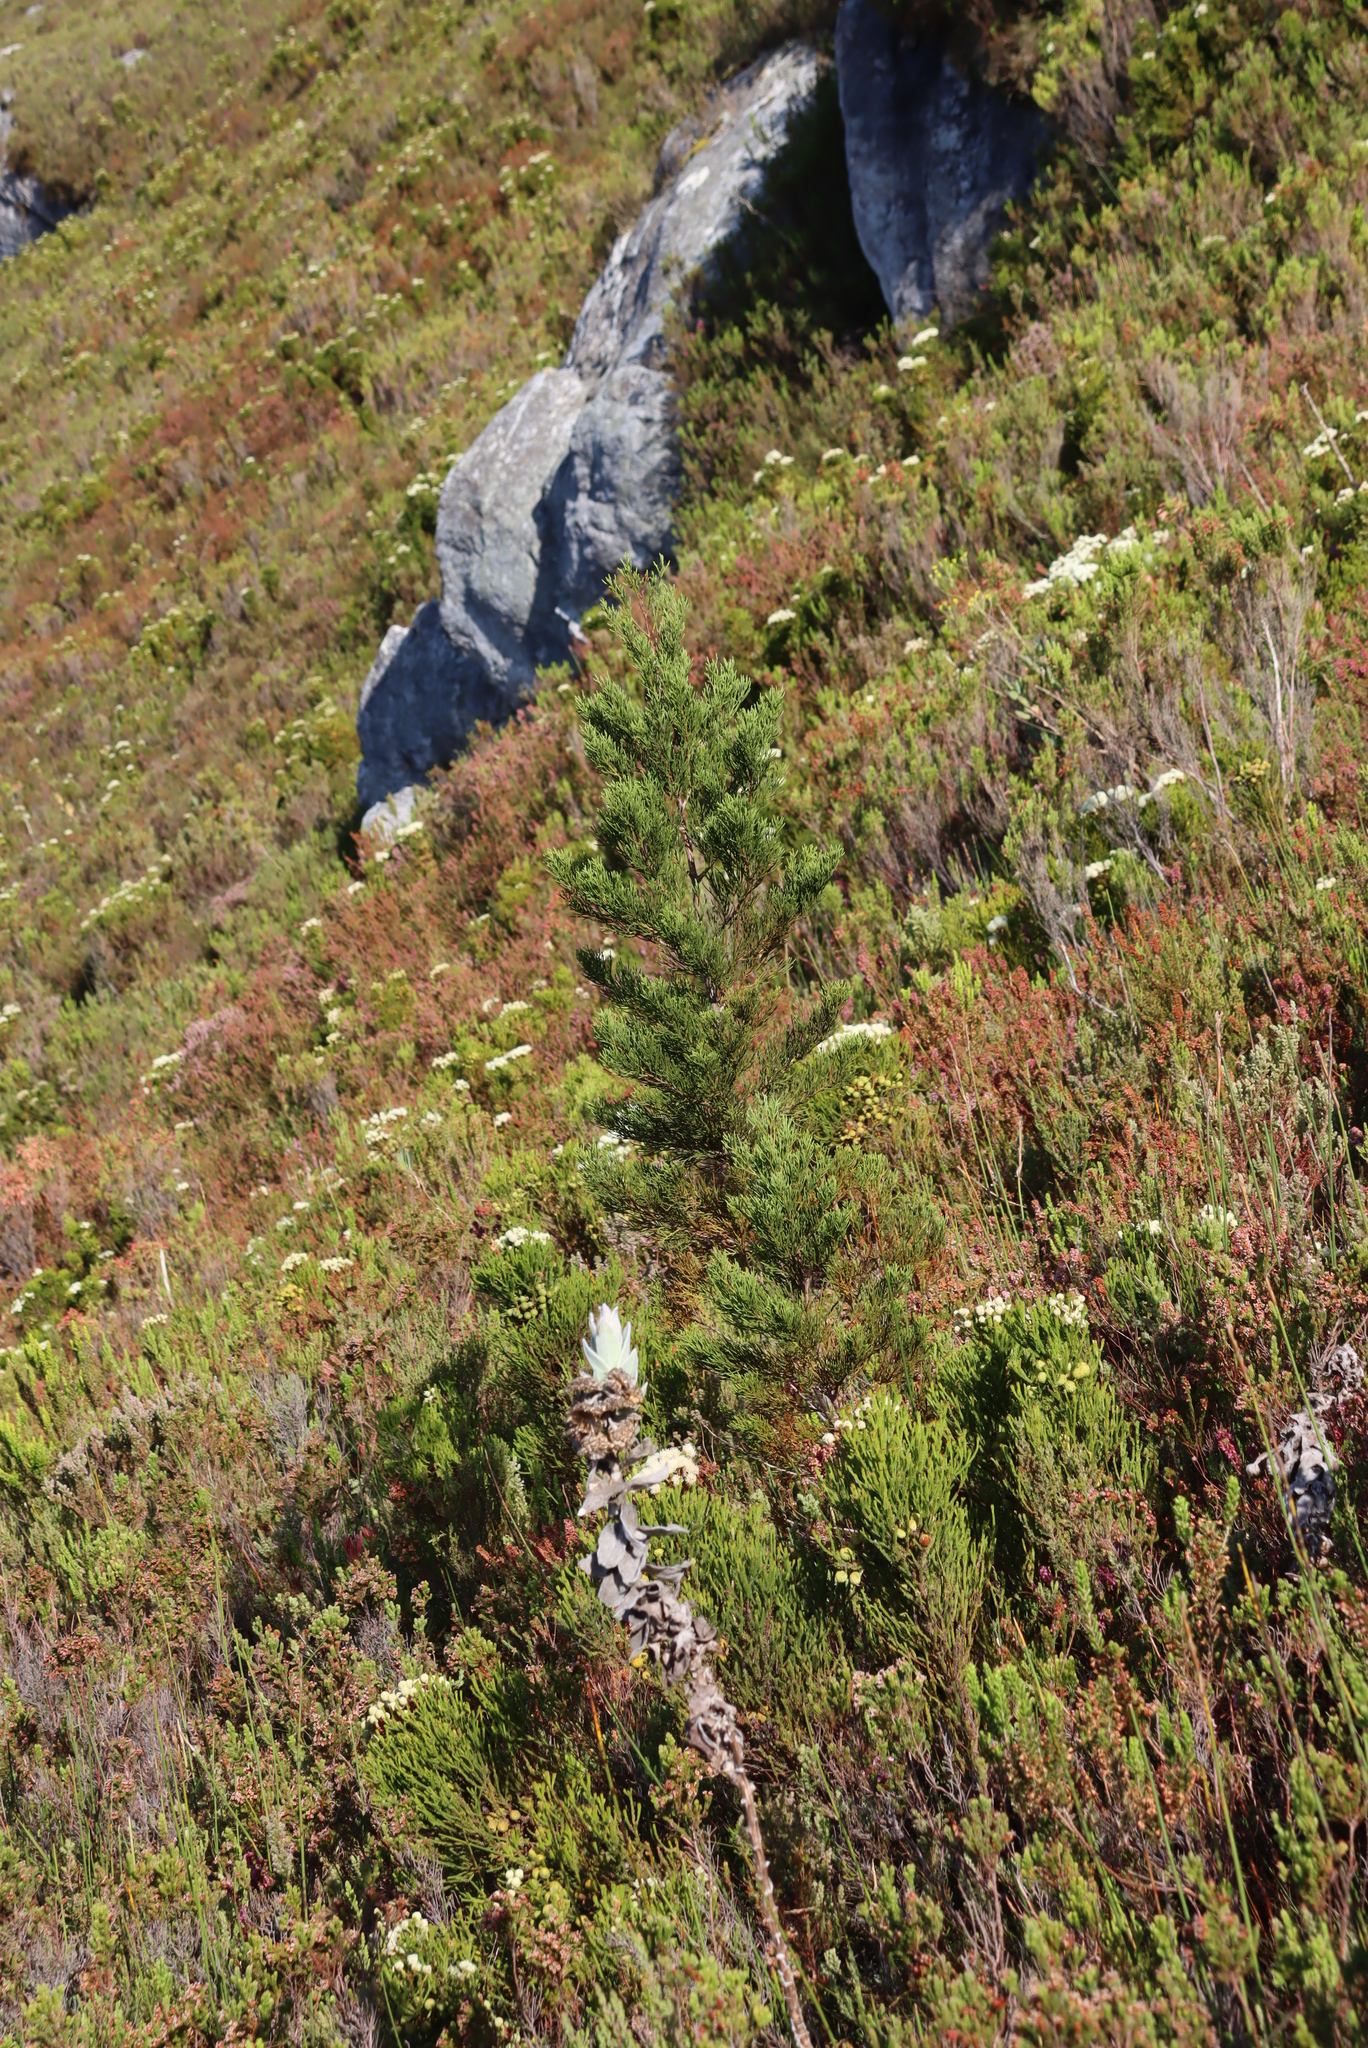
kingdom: Plantae
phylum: Tracheophyta
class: Pinopsida
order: Pinales
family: Cupressaceae
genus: Widdringtonia
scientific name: Widdringtonia nodiflora
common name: Cape cypress
